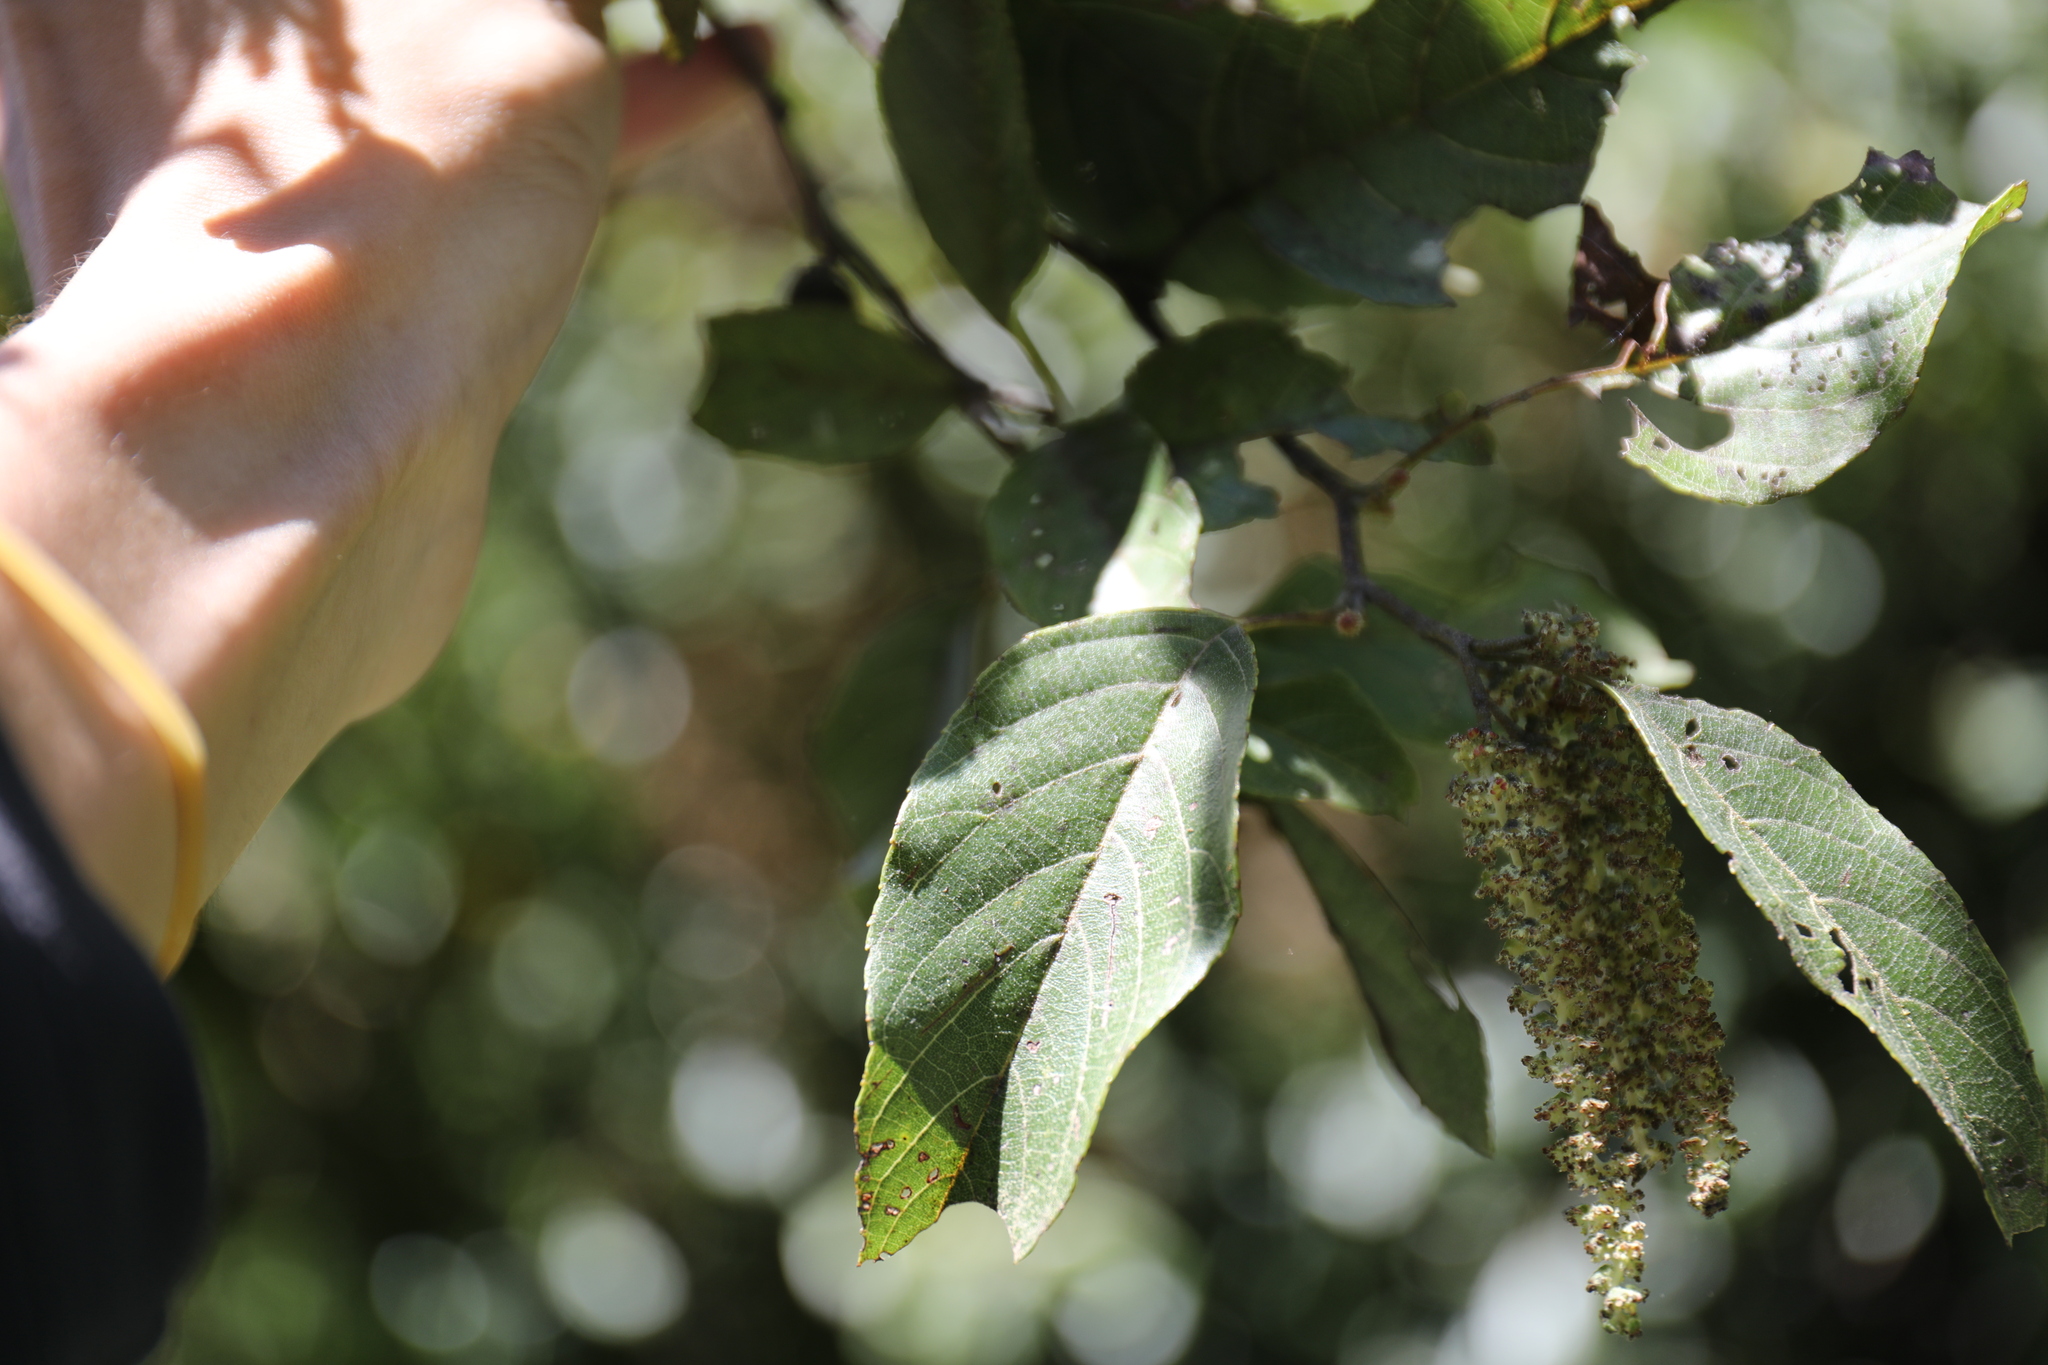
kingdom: Plantae
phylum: Tracheophyta
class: Magnoliopsida
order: Fagales
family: Betulaceae
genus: Alnus
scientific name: Alnus formosana
